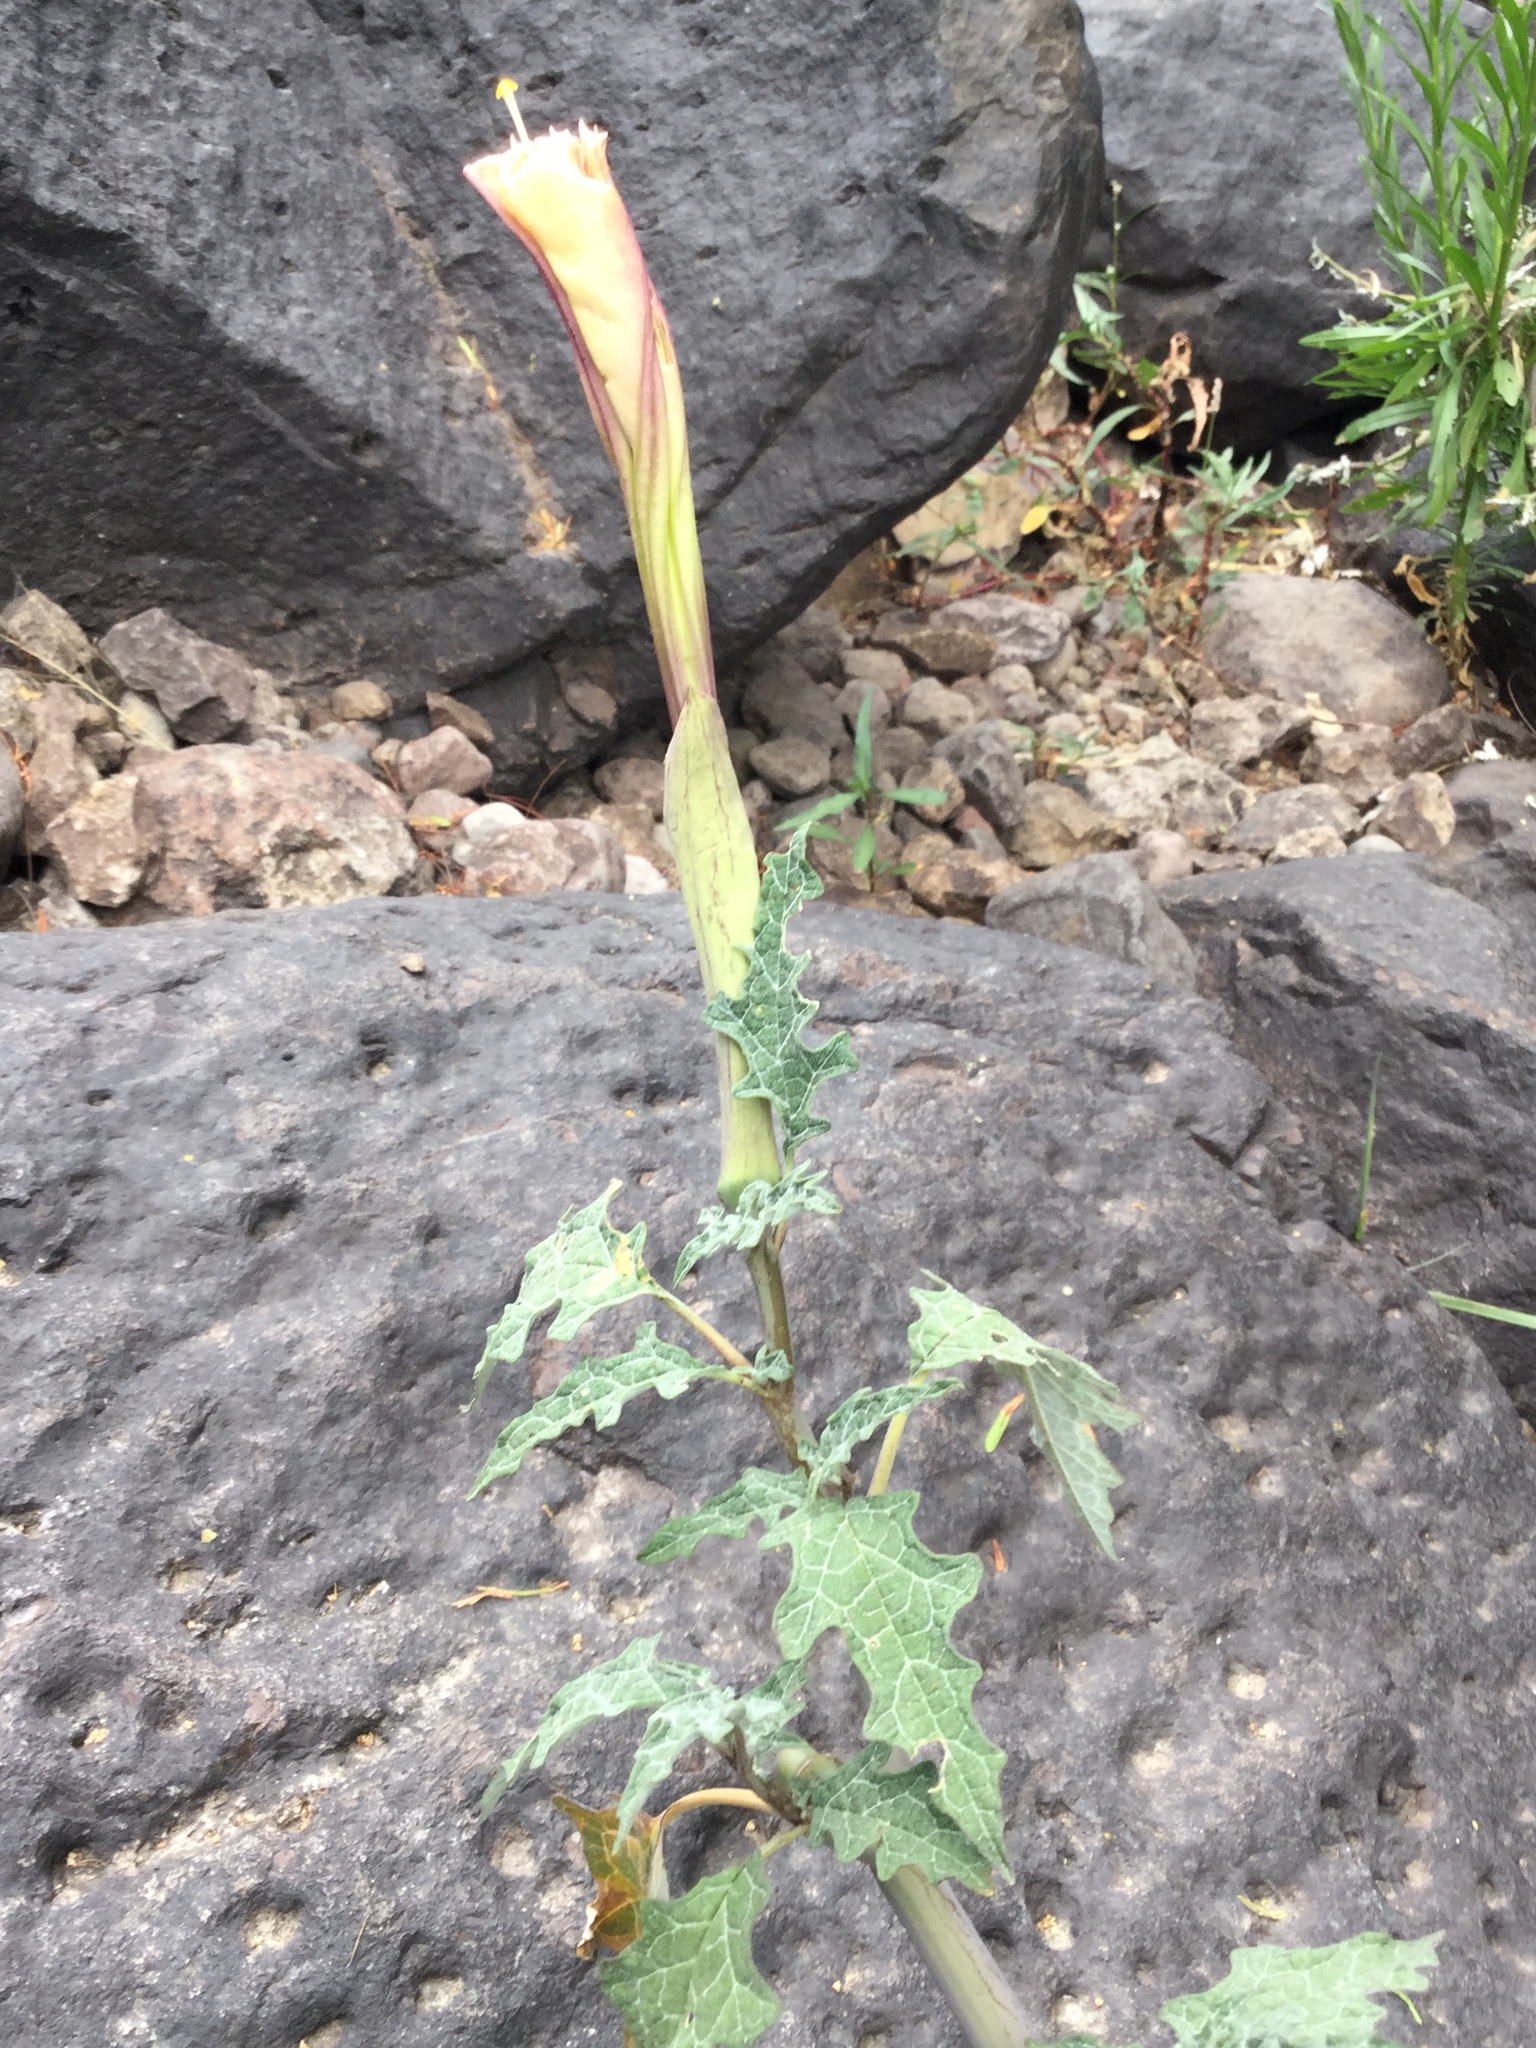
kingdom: Plantae
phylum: Tracheophyta
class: Magnoliopsida
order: Solanales
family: Solanaceae
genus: Datura
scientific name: Datura ceratocaula
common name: Latin thorn-apple
